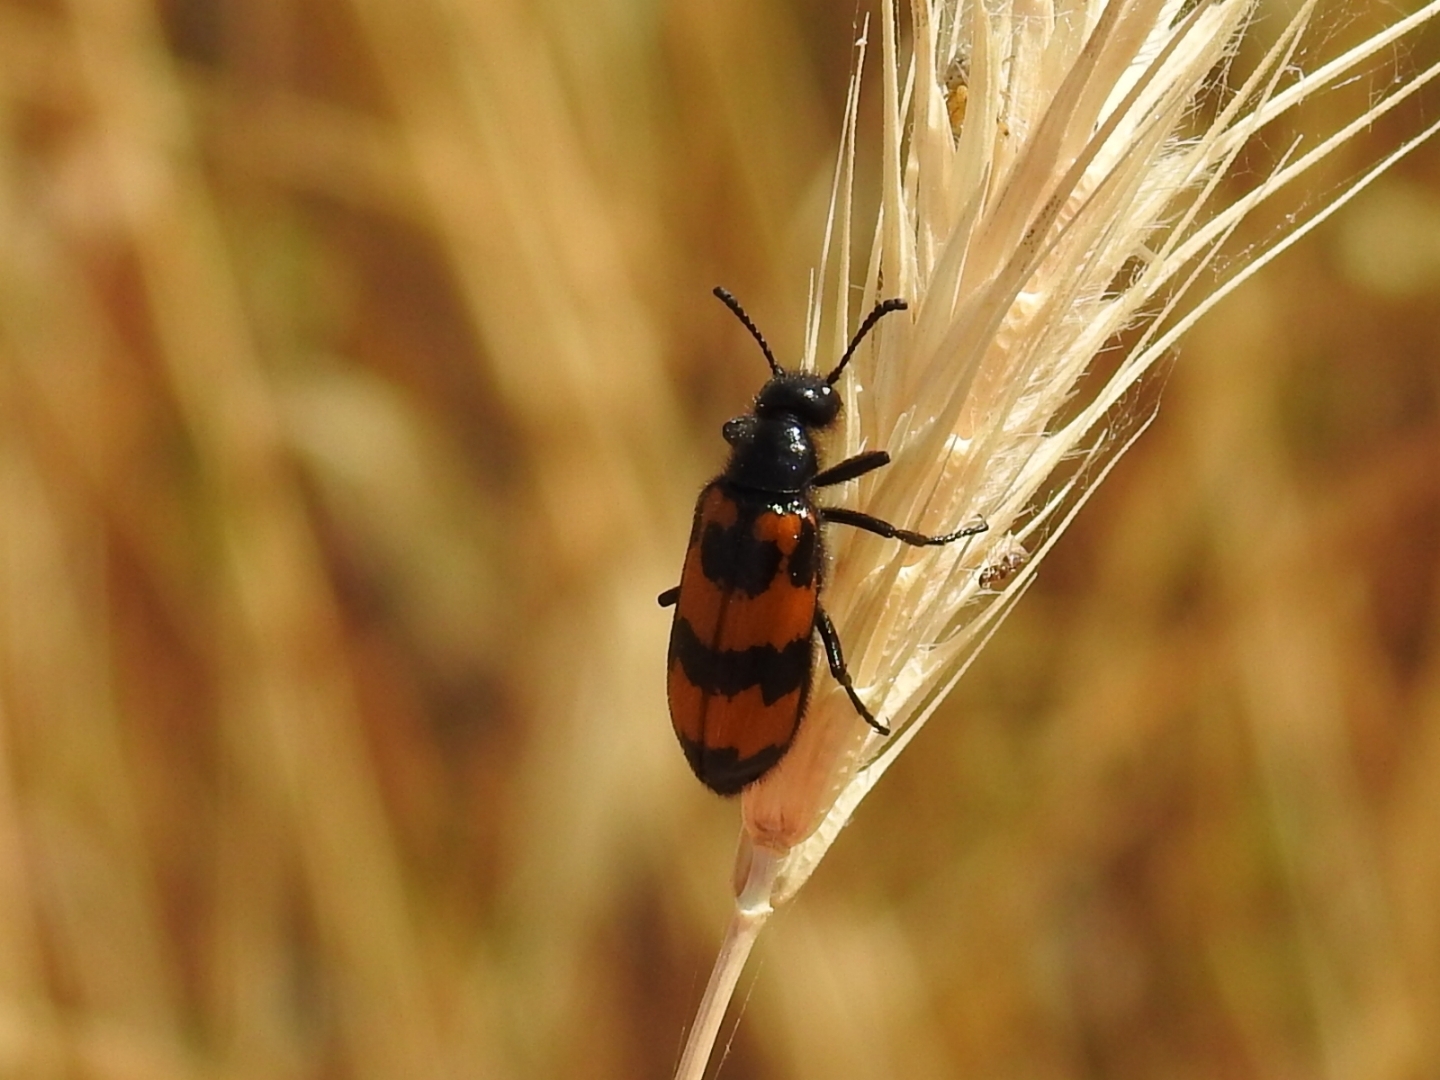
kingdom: Animalia
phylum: Arthropoda
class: Insecta
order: Coleoptera
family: Meloidae
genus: Mylabris
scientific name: Mylabris variabilis
